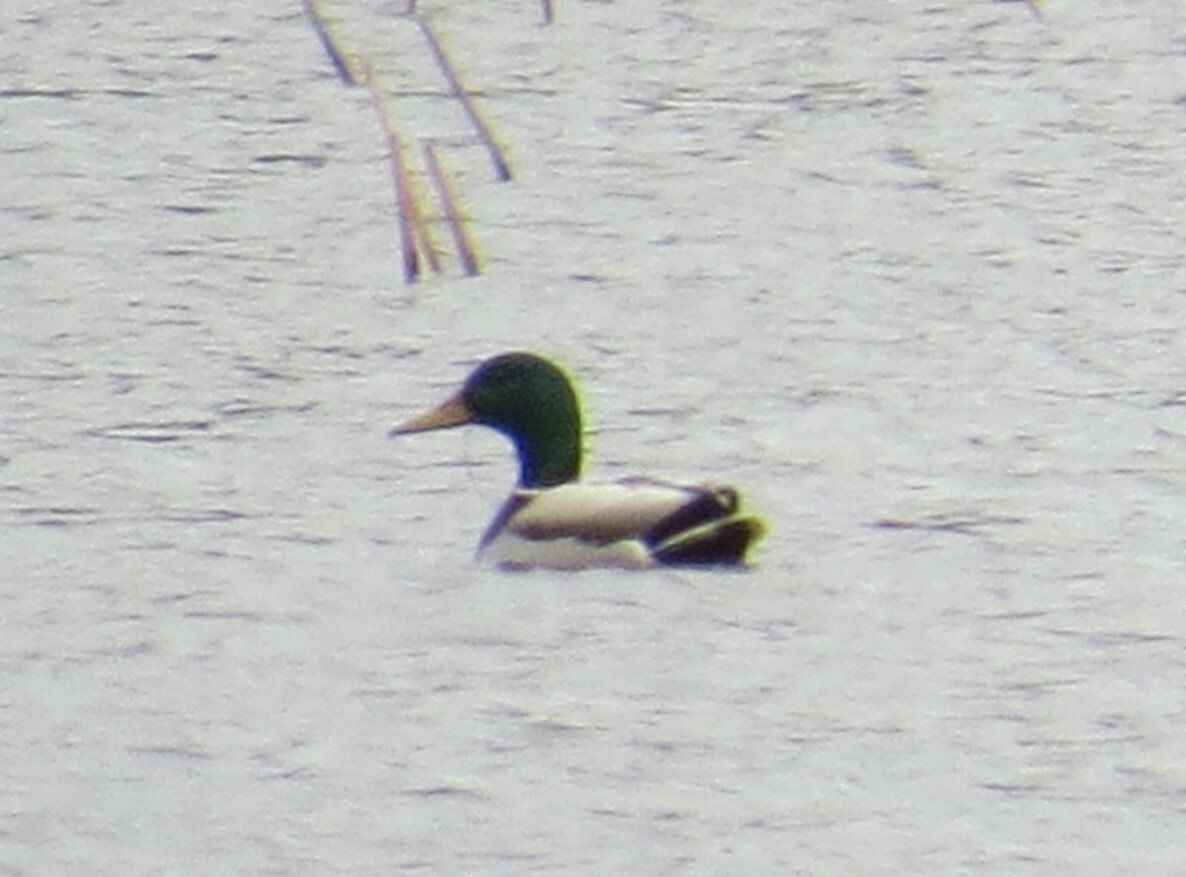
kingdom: Animalia
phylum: Chordata
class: Aves
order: Anseriformes
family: Anatidae
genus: Anas
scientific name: Anas platyrhynchos
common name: Mallard
